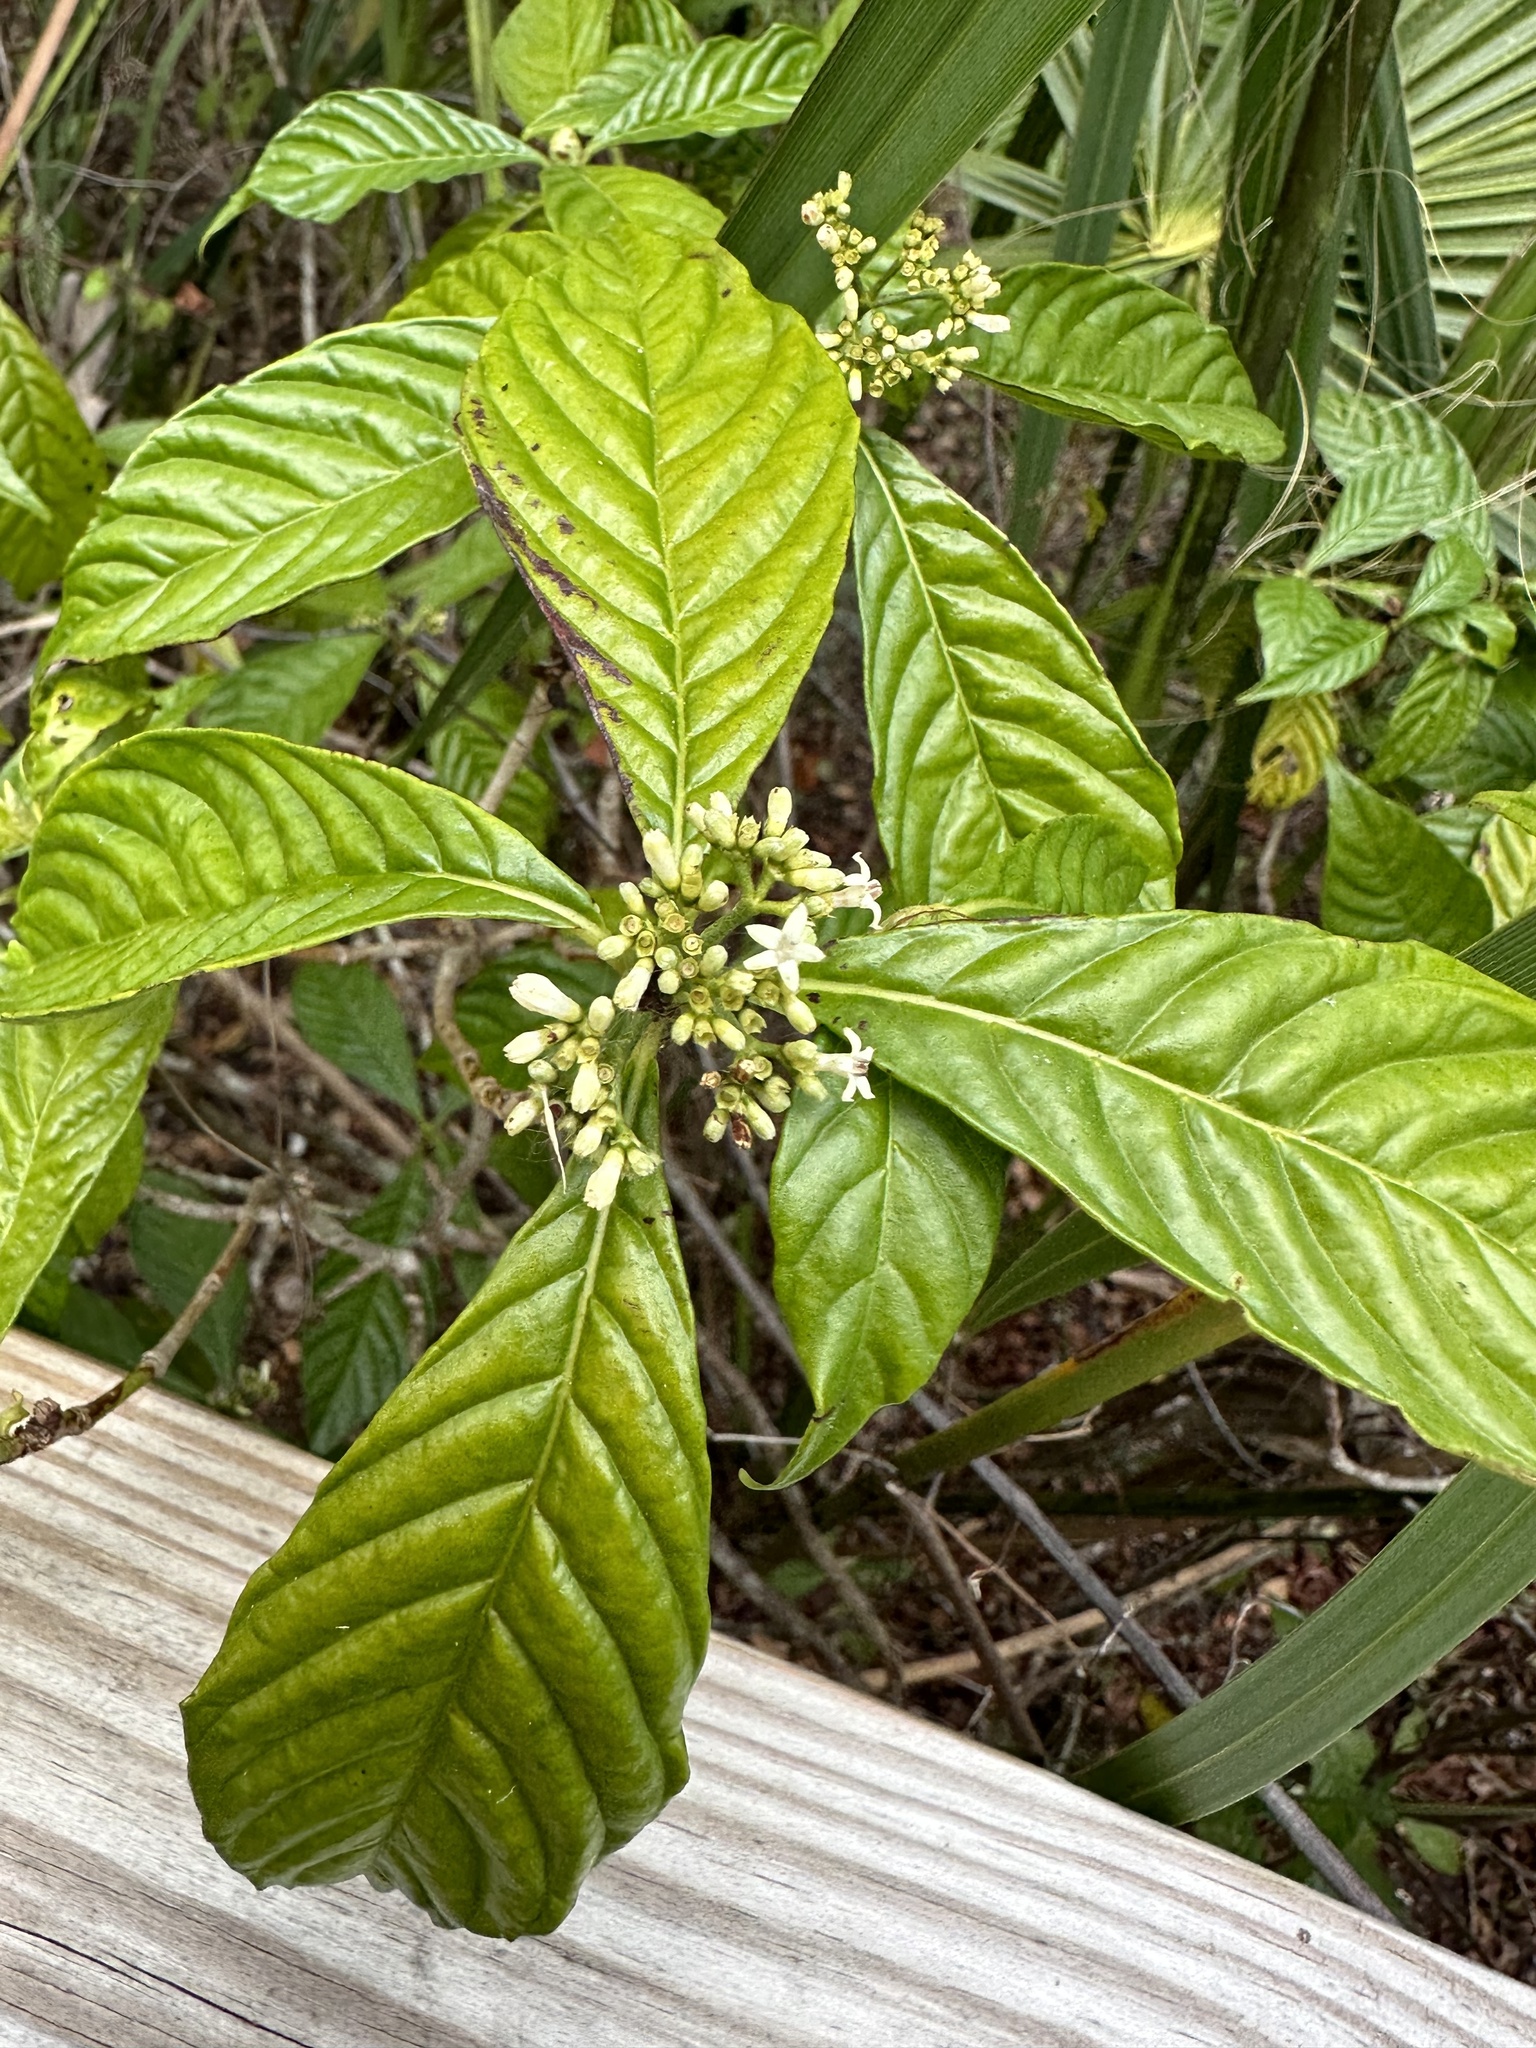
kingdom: Plantae
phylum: Tracheophyta
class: Magnoliopsida
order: Gentianales
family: Rubiaceae
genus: Psychotria
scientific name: Psychotria nervosa
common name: Bastard cankerberry
